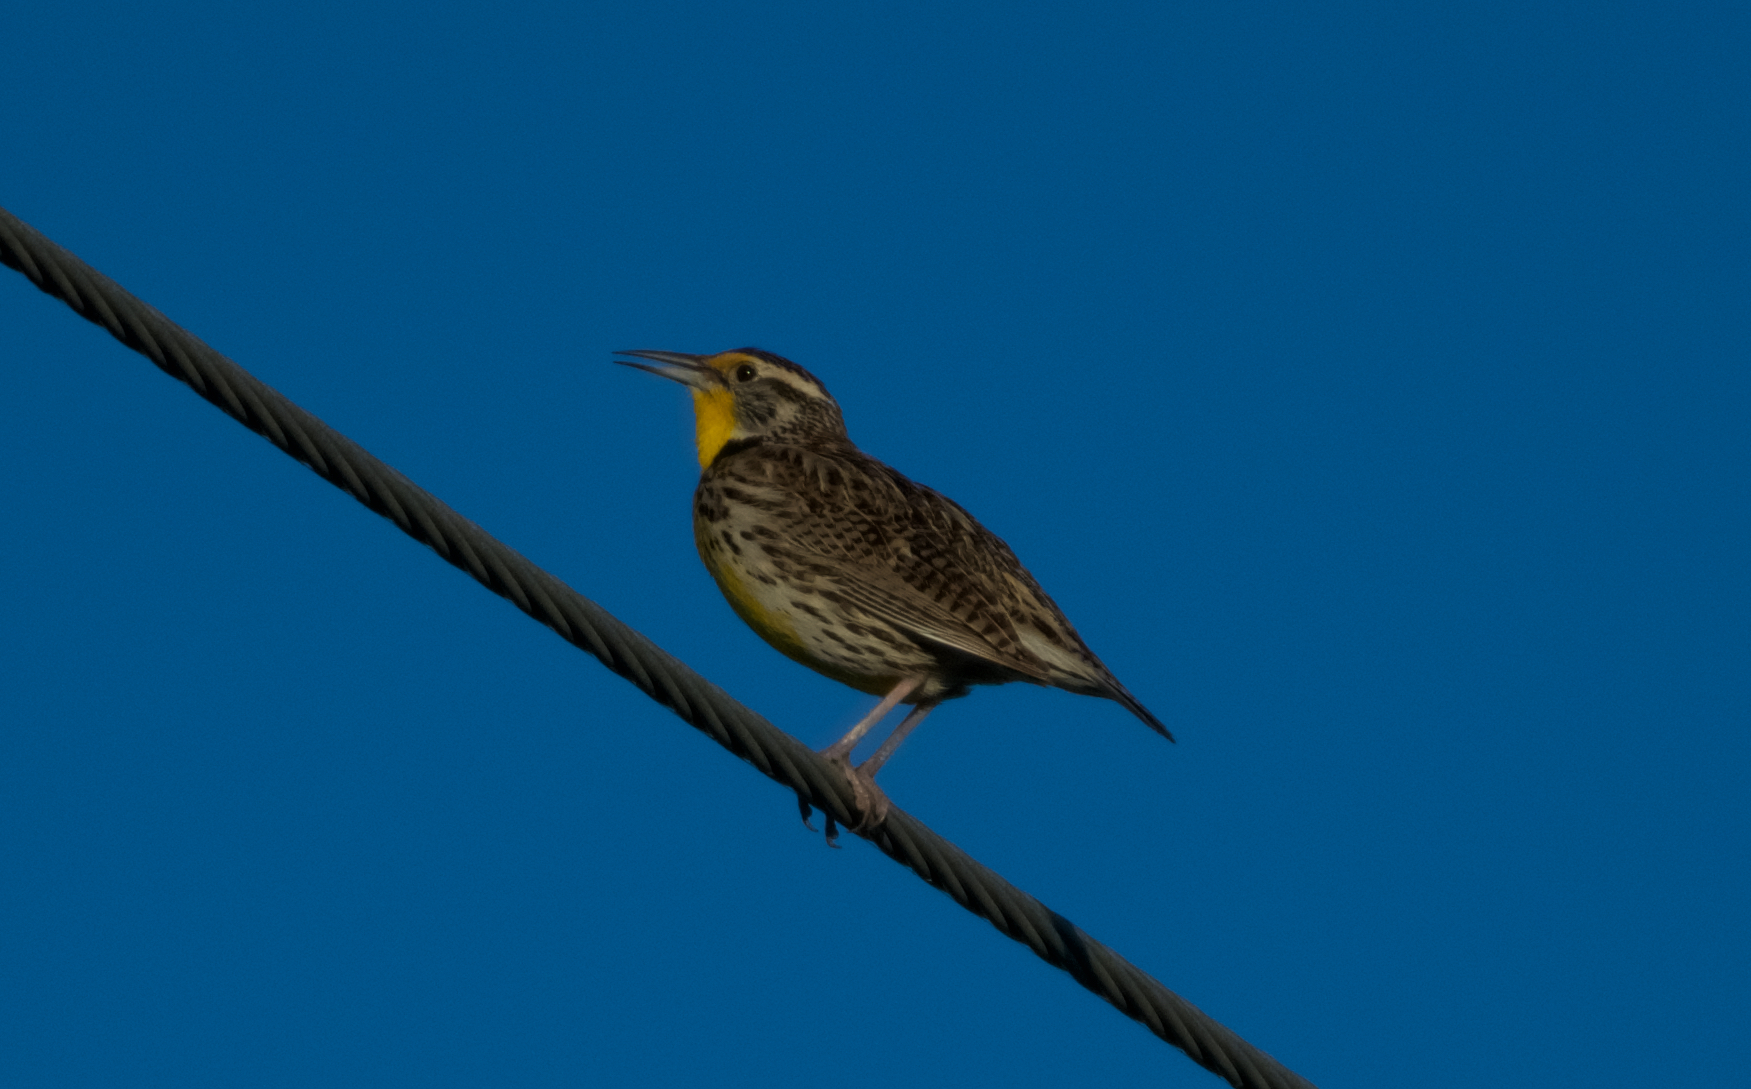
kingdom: Animalia
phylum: Chordata
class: Aves
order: Passeriformes
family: Icteridae
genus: Sturnella
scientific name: Sturnella neglecta
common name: Western meadowlark
